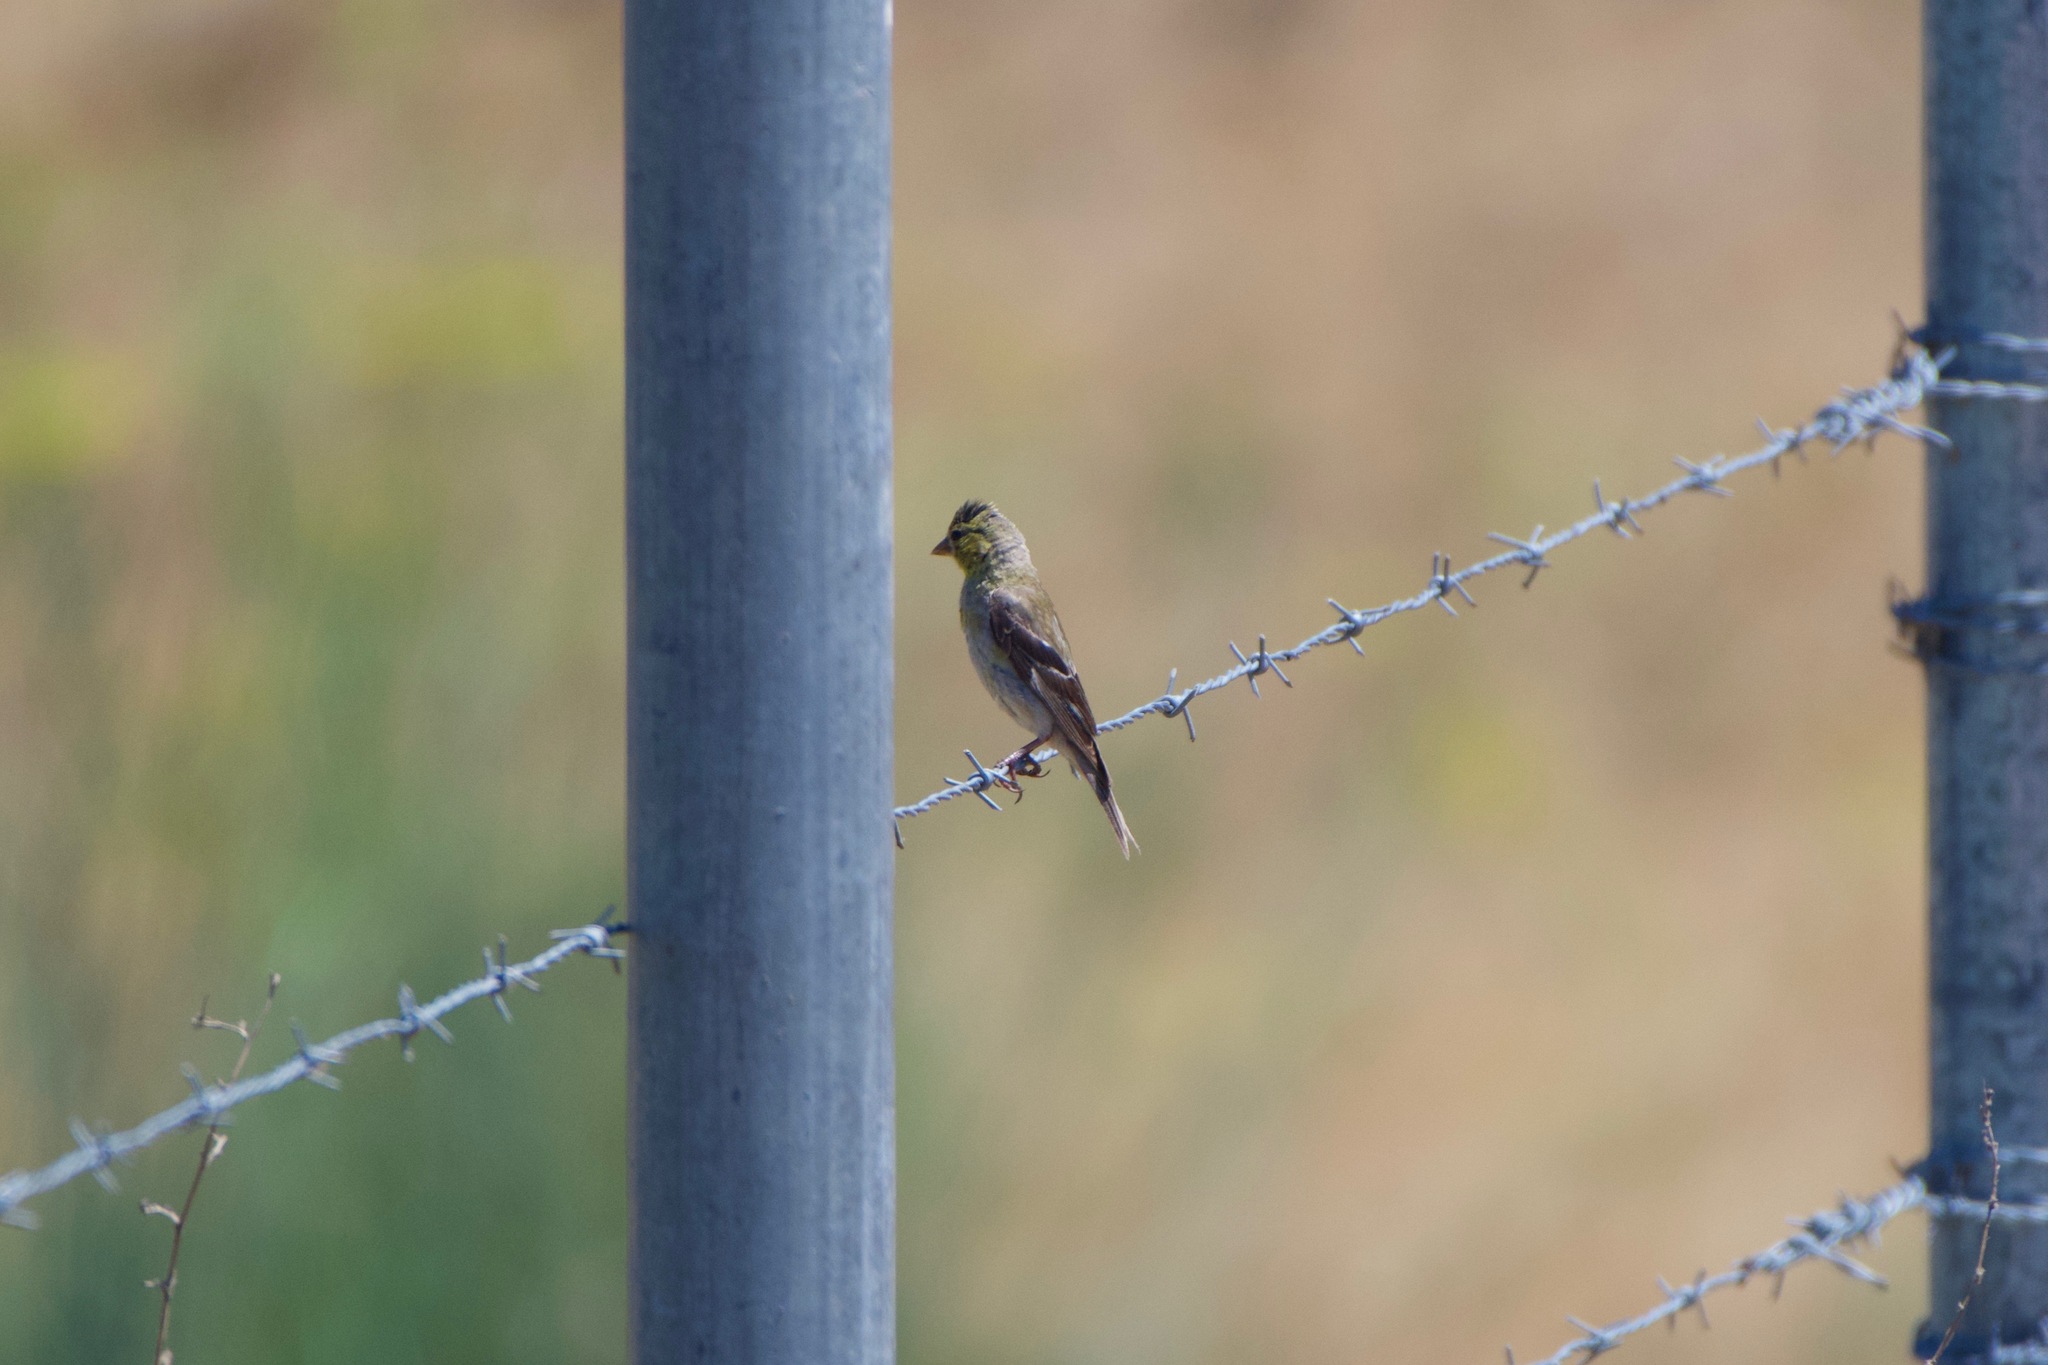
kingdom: Animalia
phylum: Chordata
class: Aves
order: Passeriformes
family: Fringillidae
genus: Spinus
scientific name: Spinus psaltria
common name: Lesser goldfinch
